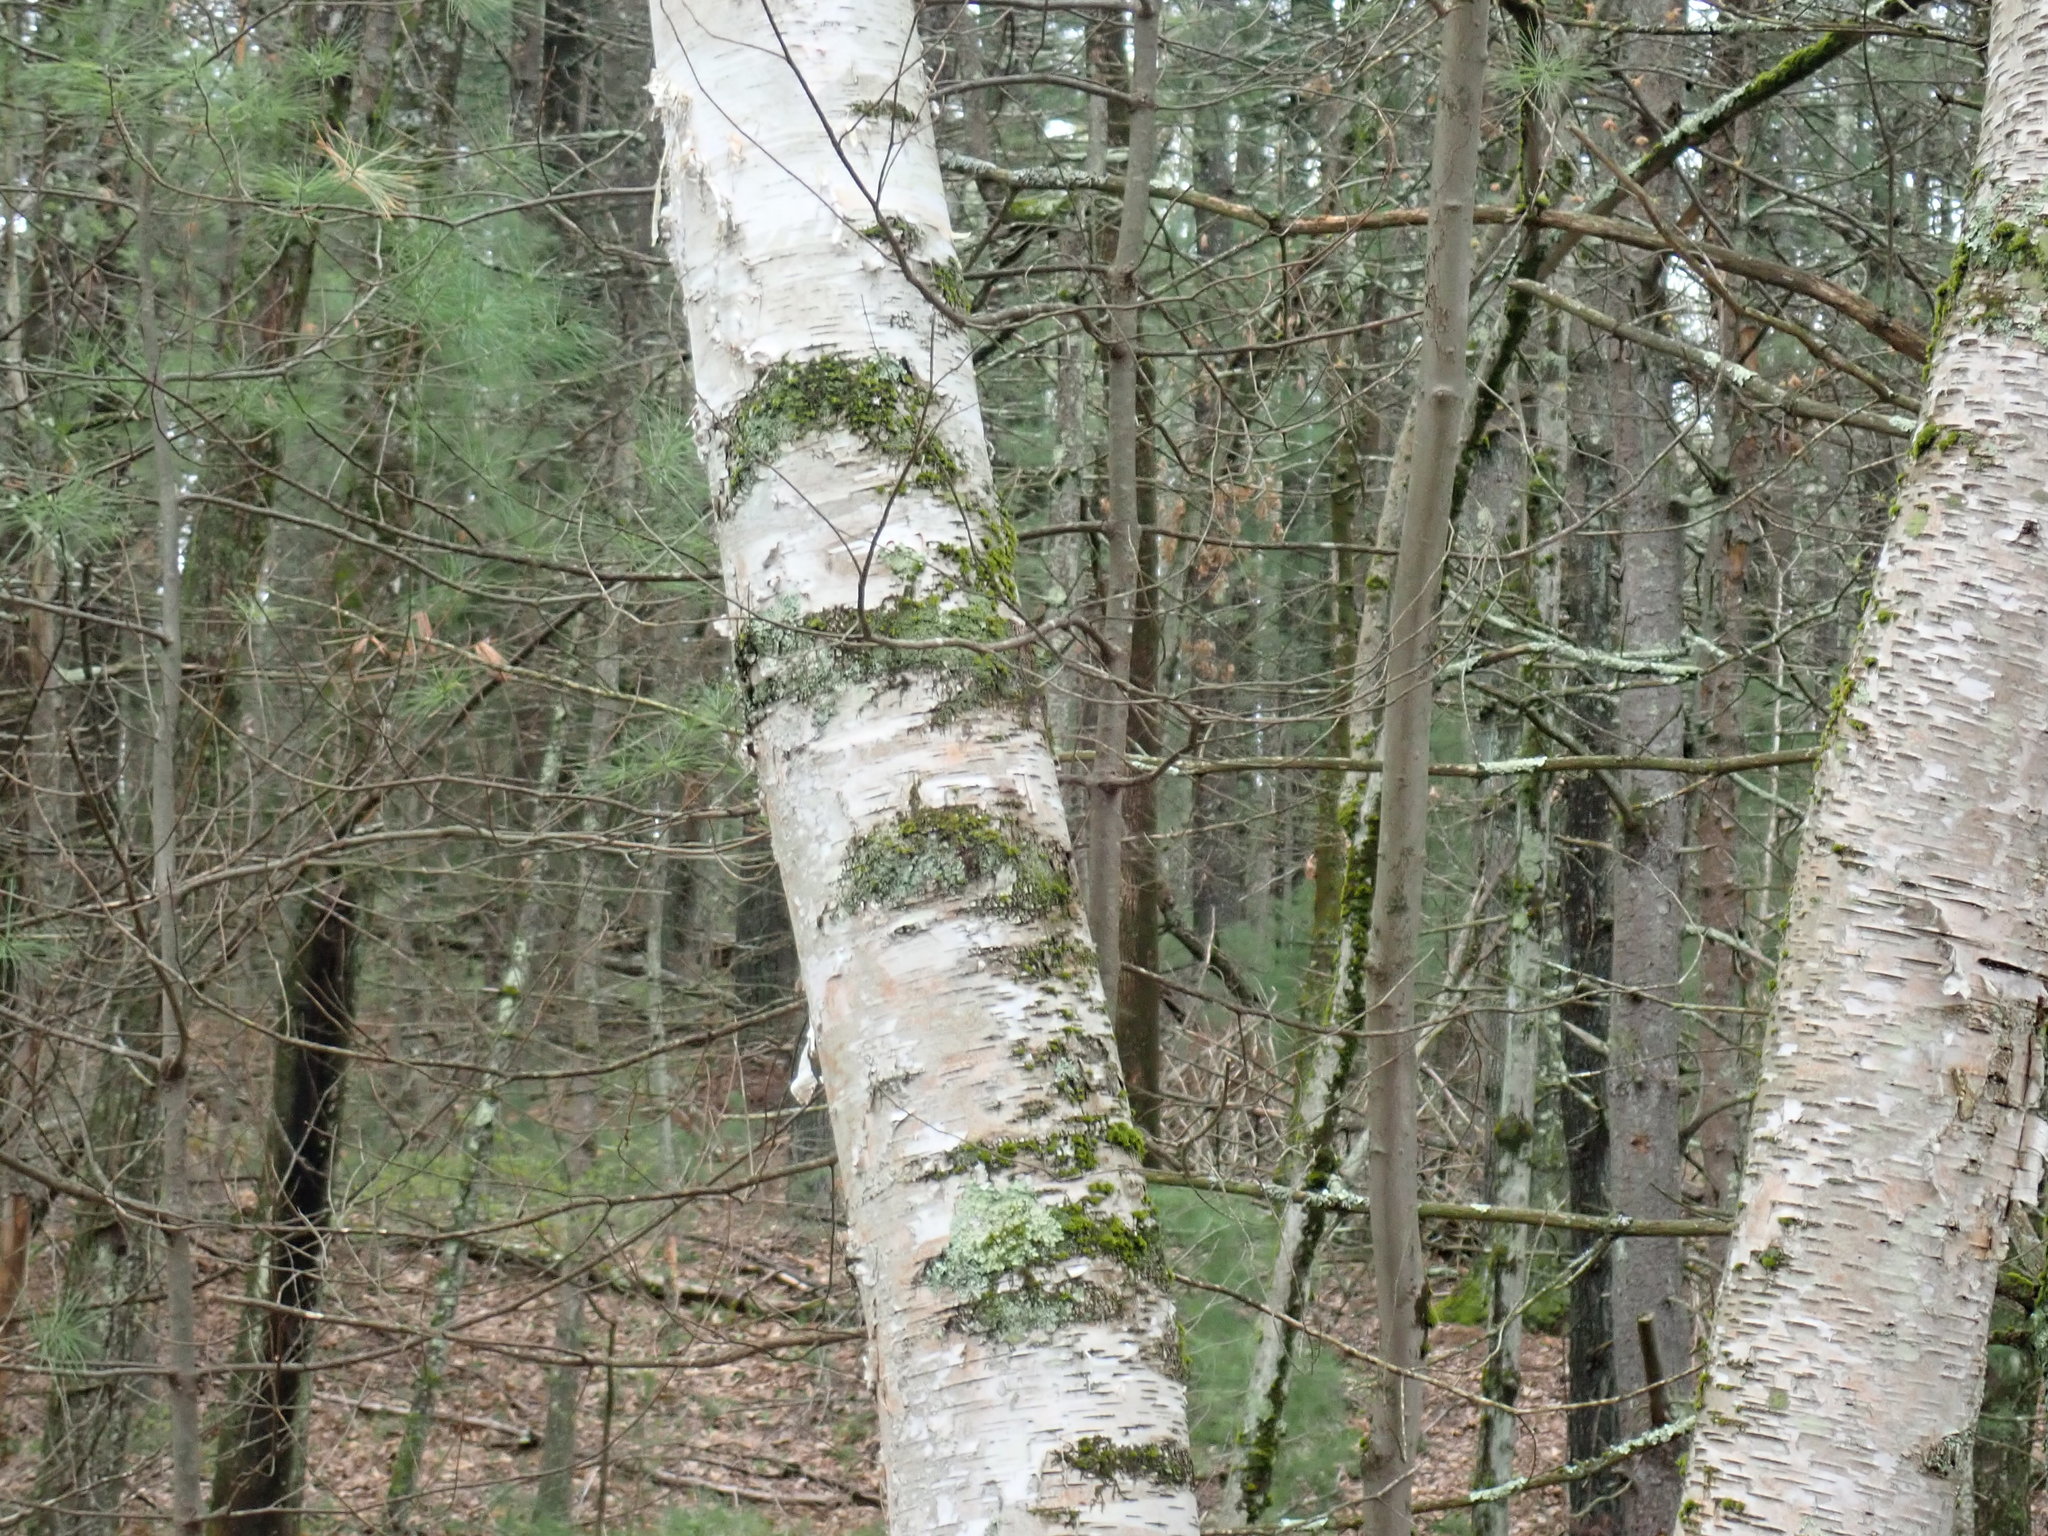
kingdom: Plantae
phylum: Tracheophyta
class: Magnoliopsida
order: Fagales
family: Betulaceae
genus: Betula
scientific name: Betula papyrifera
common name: Paper birch
